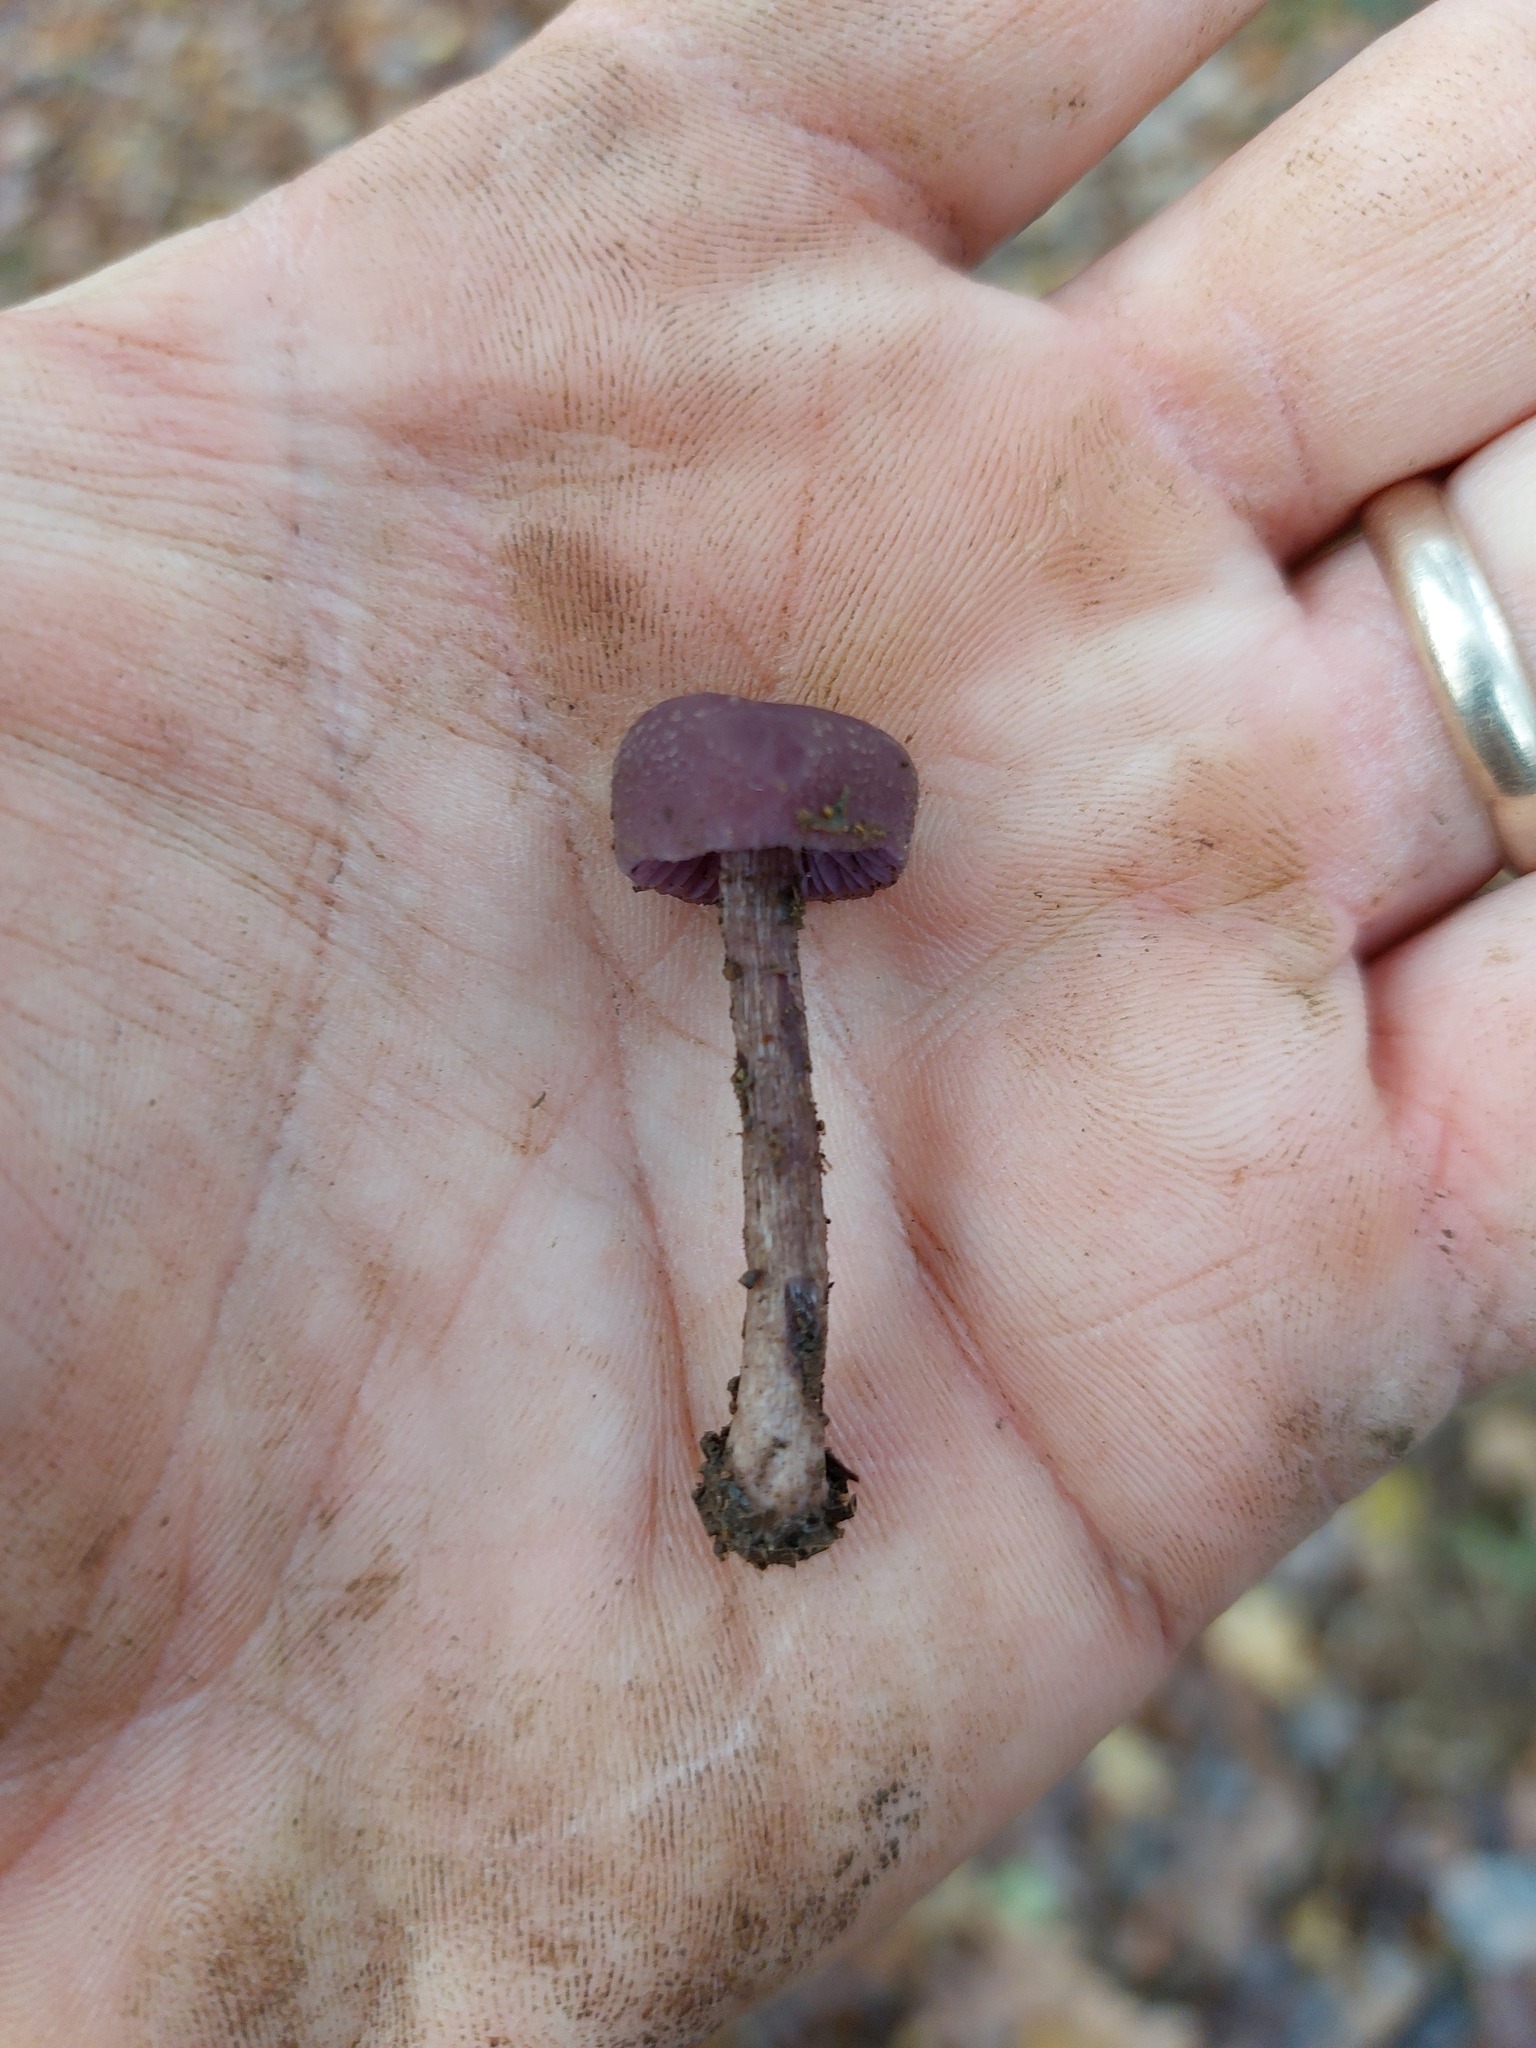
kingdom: Fungi
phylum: Basidiomycota
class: Agaricomycetes
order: Agaricales
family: Hydnangiaceae
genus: Laccaria
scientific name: Laccaria amethystina
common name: Amethyst deceiver
